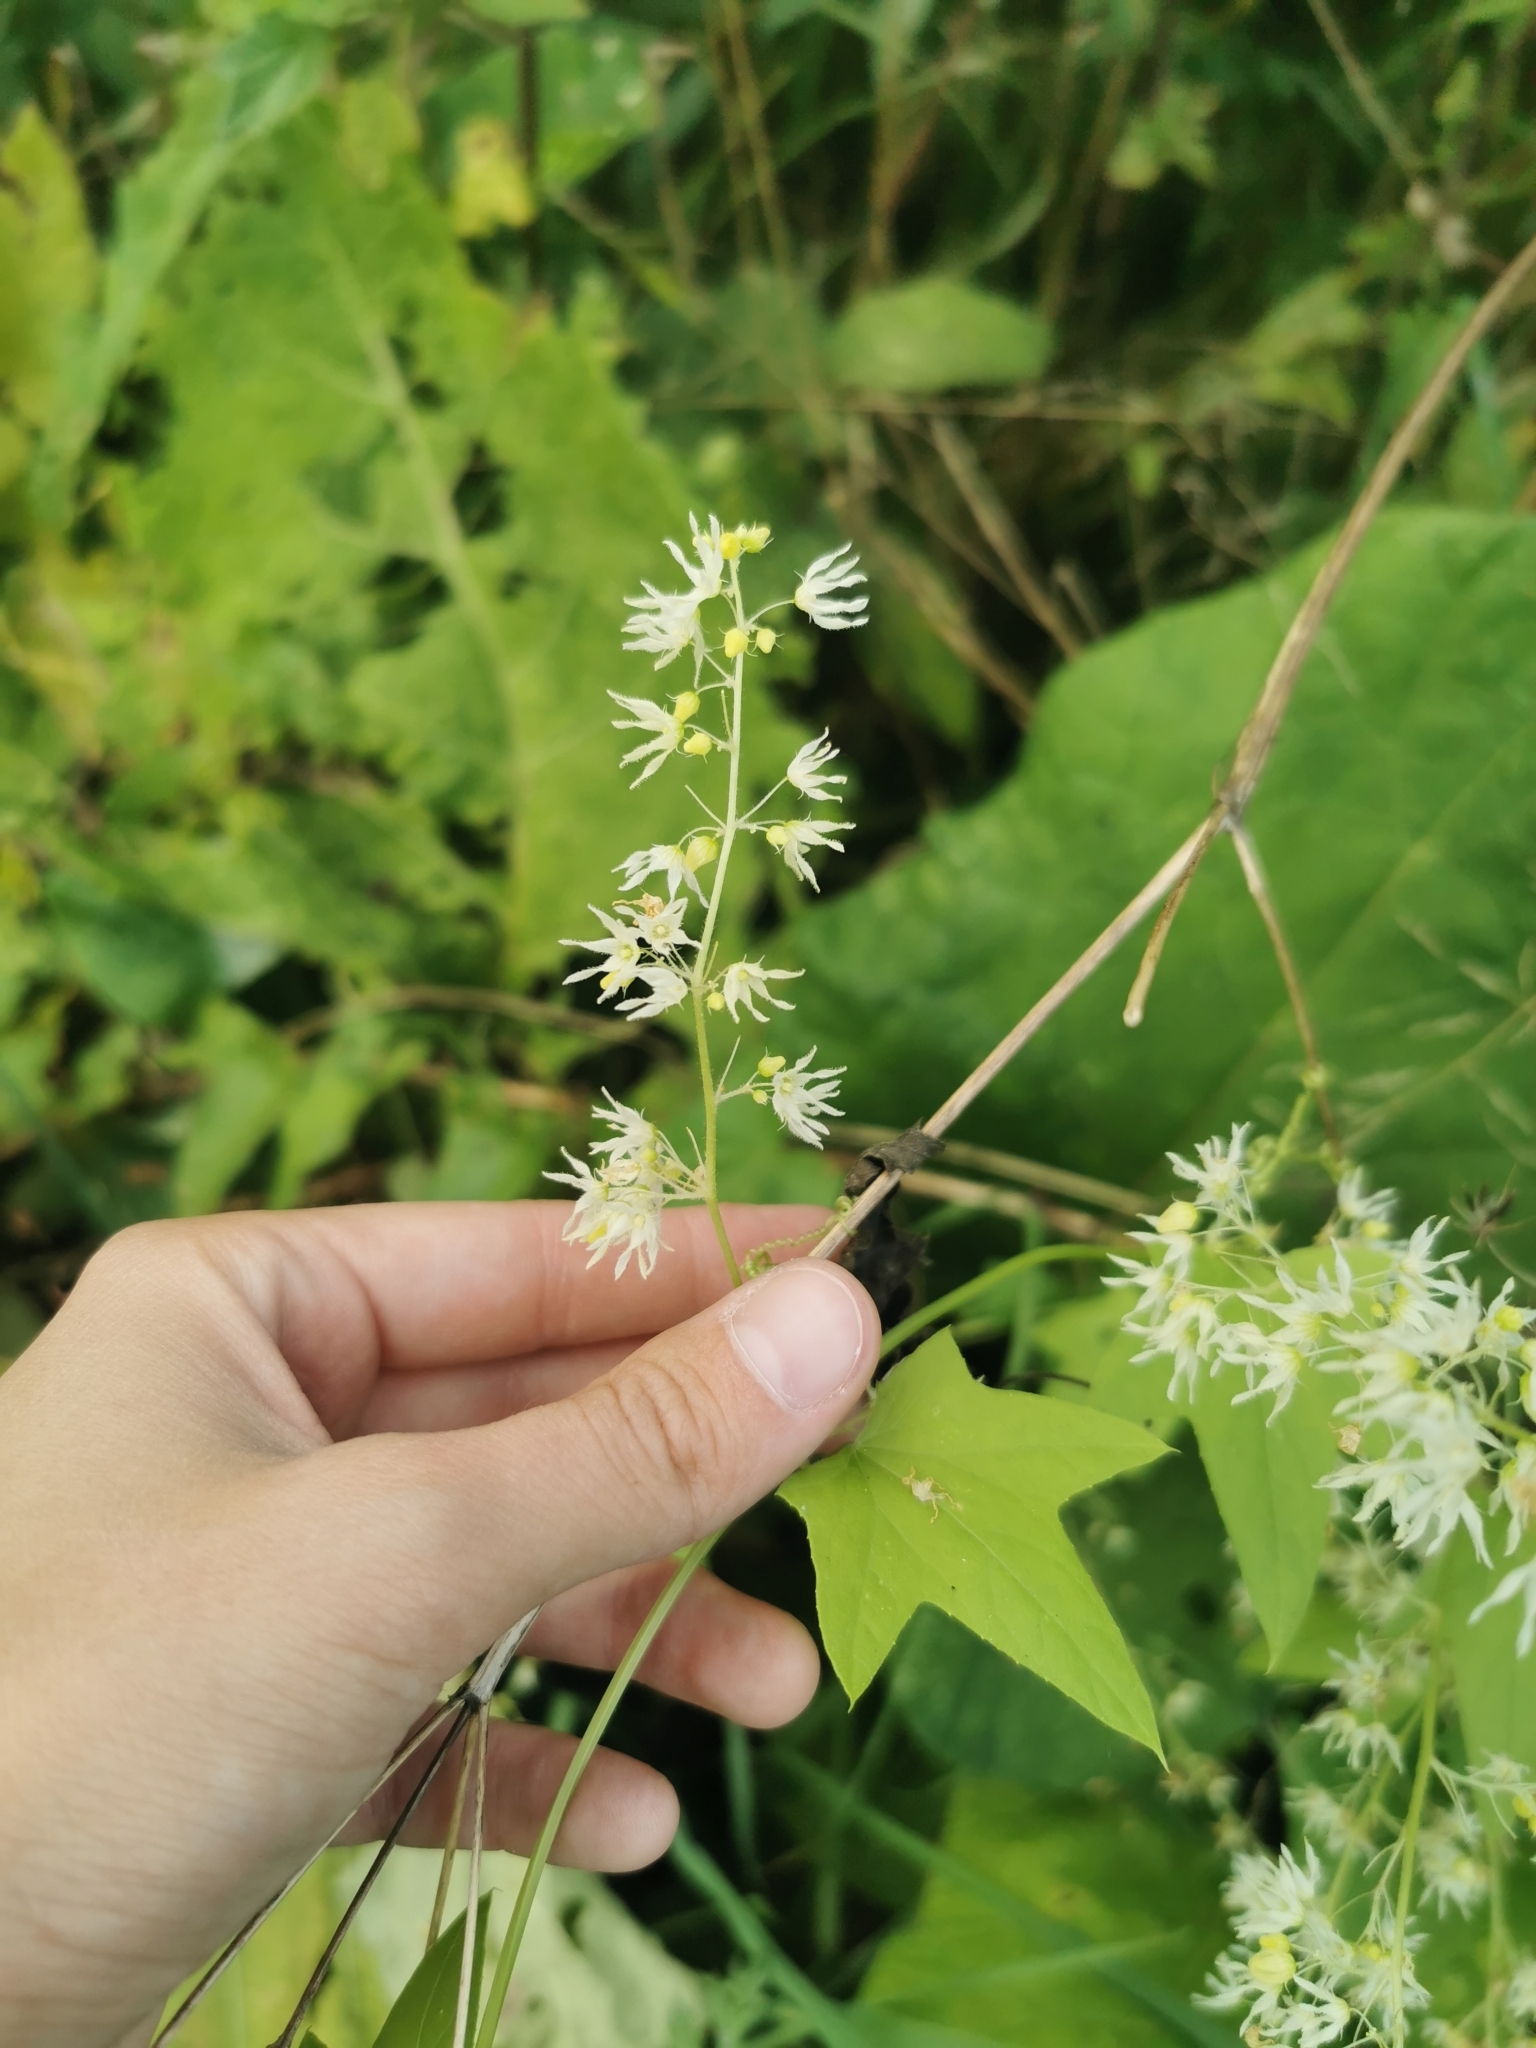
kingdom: Plantae
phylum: Tracheophyta
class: Magnoliopsida
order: Cucurbitales
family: Cucurbitaceae
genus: Echinocystis
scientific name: Echinocystis lobata
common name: Wild cucumber
